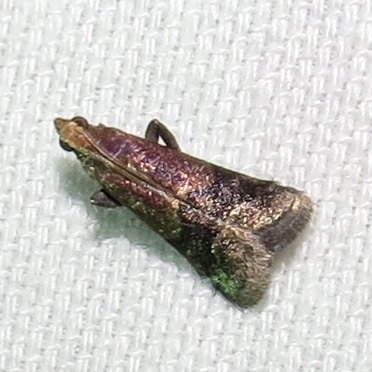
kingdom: Animalia
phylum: Arthropoda
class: Insecta
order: Lepidoptera
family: Pyralidae
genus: Eulogia
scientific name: Eulogia ochrifrontella
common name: Broad-banded eulogia moth
